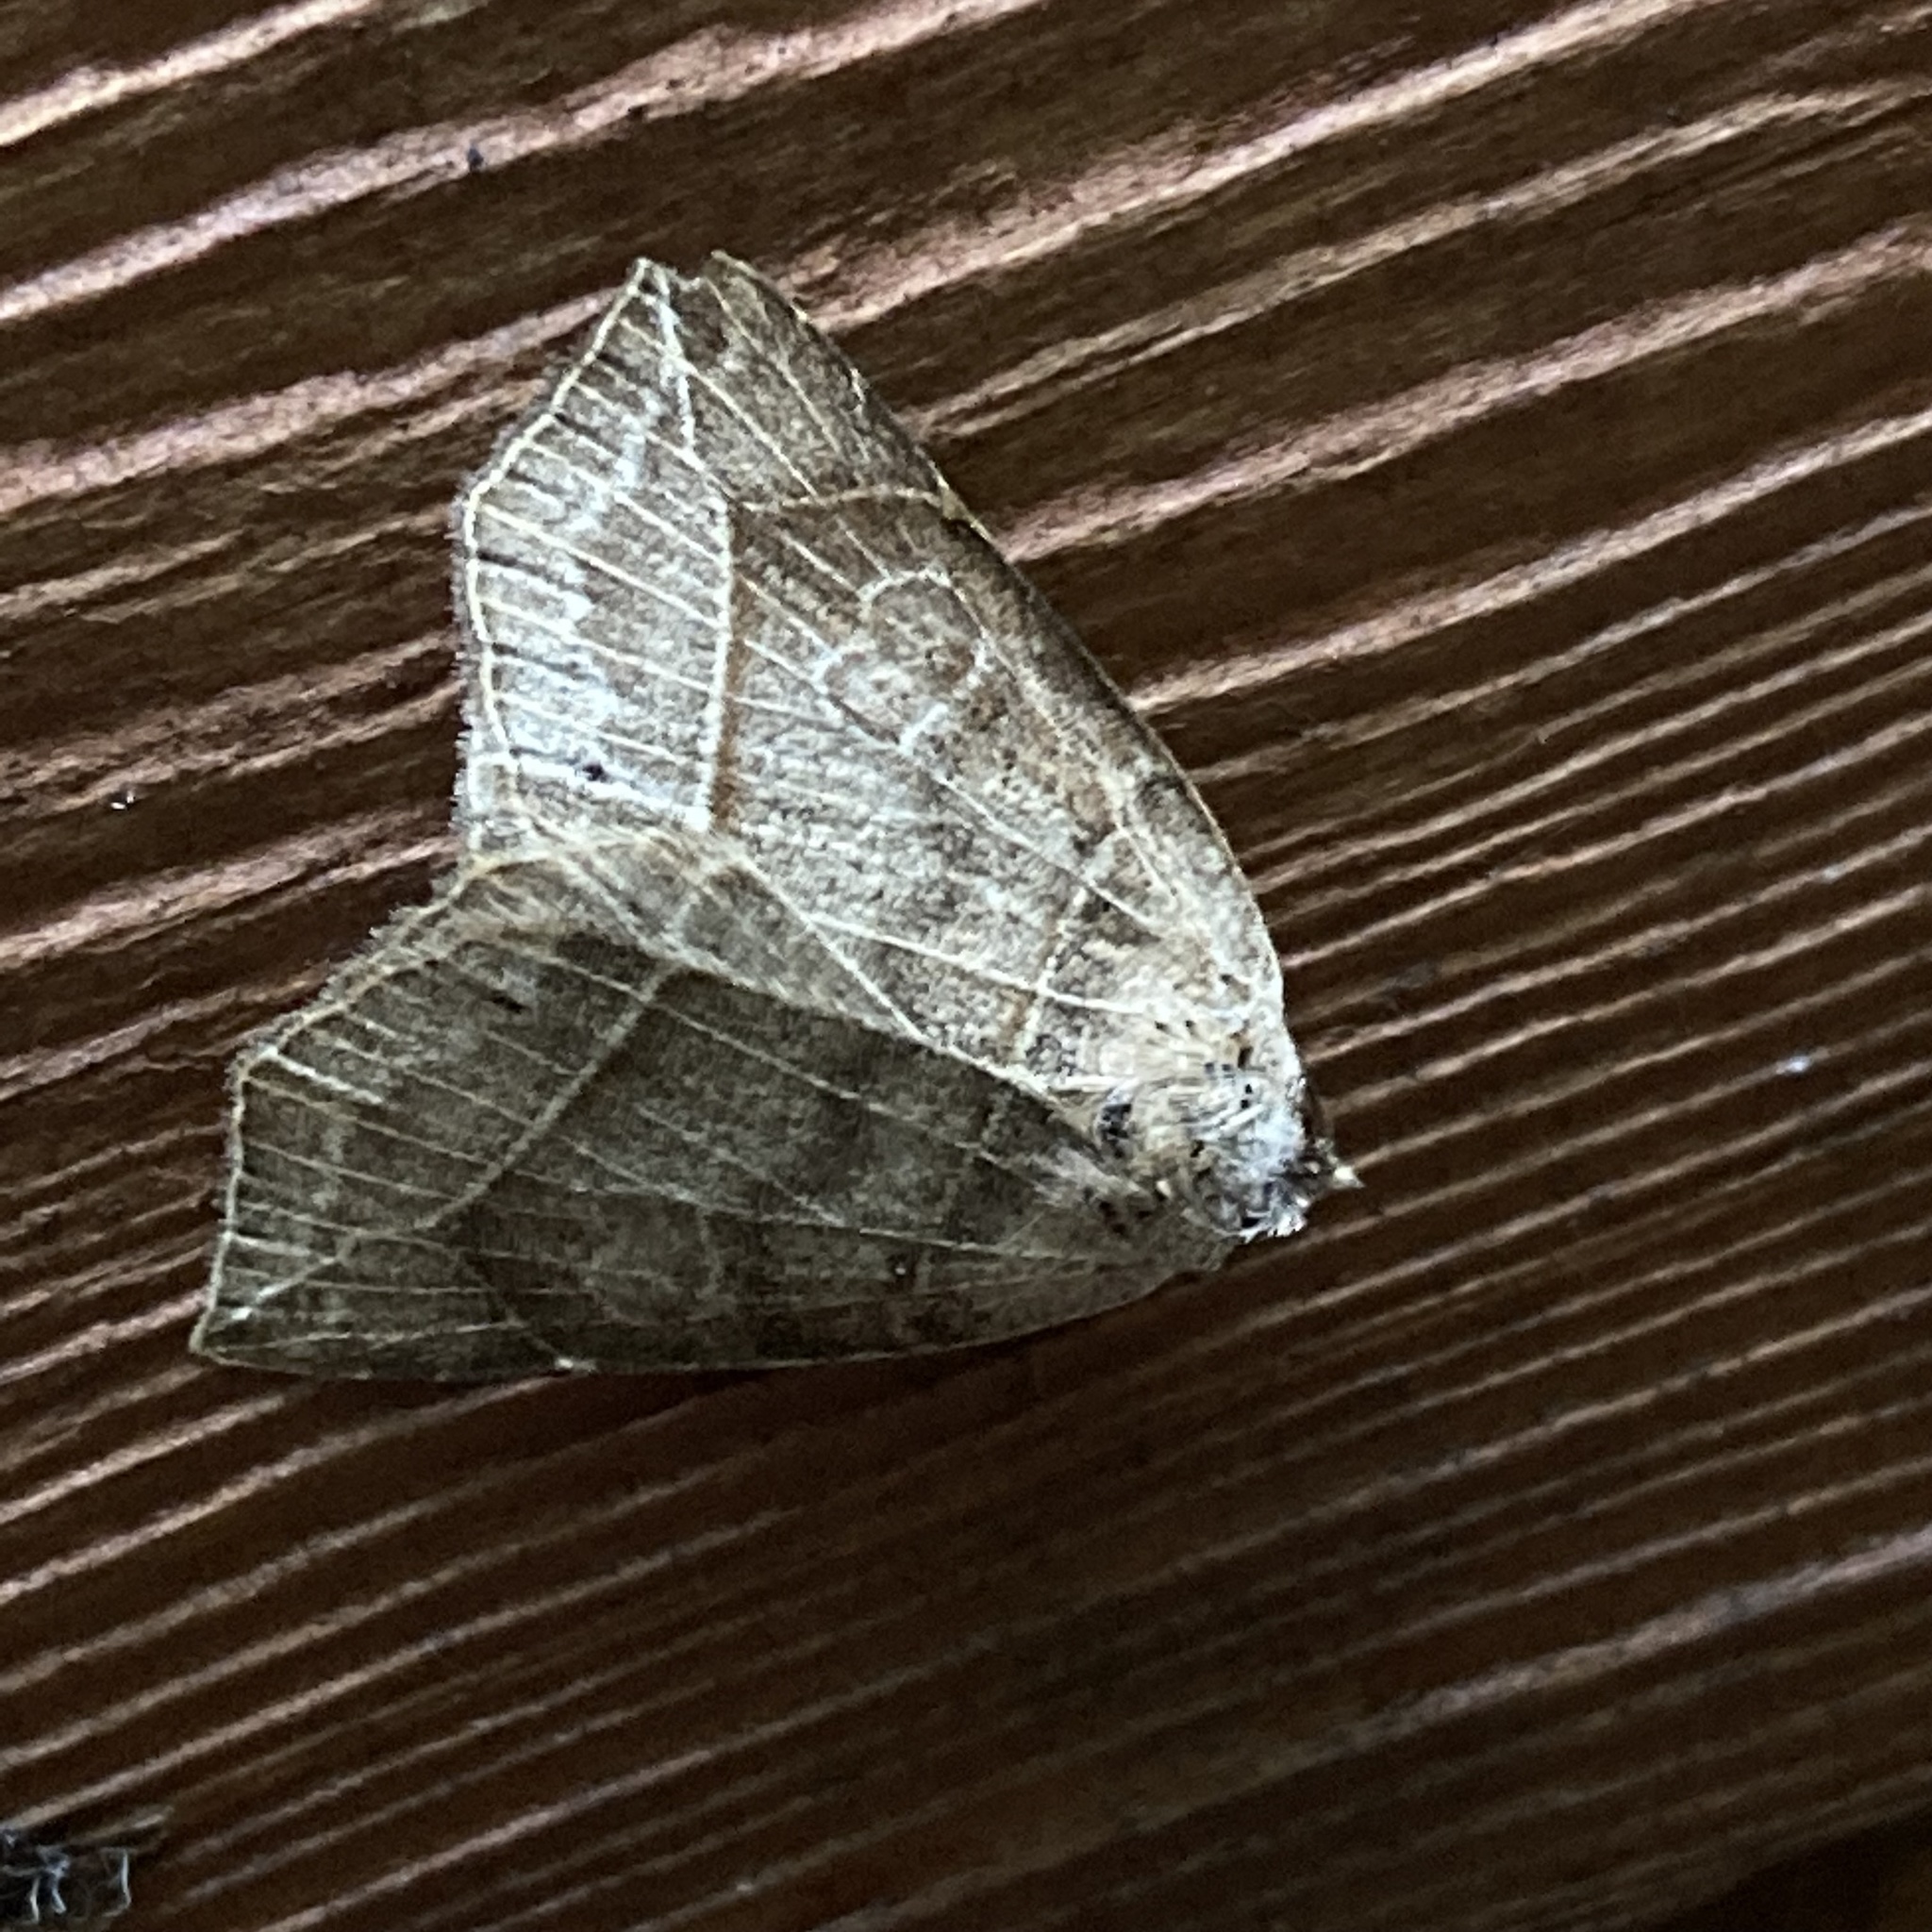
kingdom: Animalia
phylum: Arthropoda
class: Insecta
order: Lepidoptera
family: Erebidae
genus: Isogona
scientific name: Isogona tenuis
